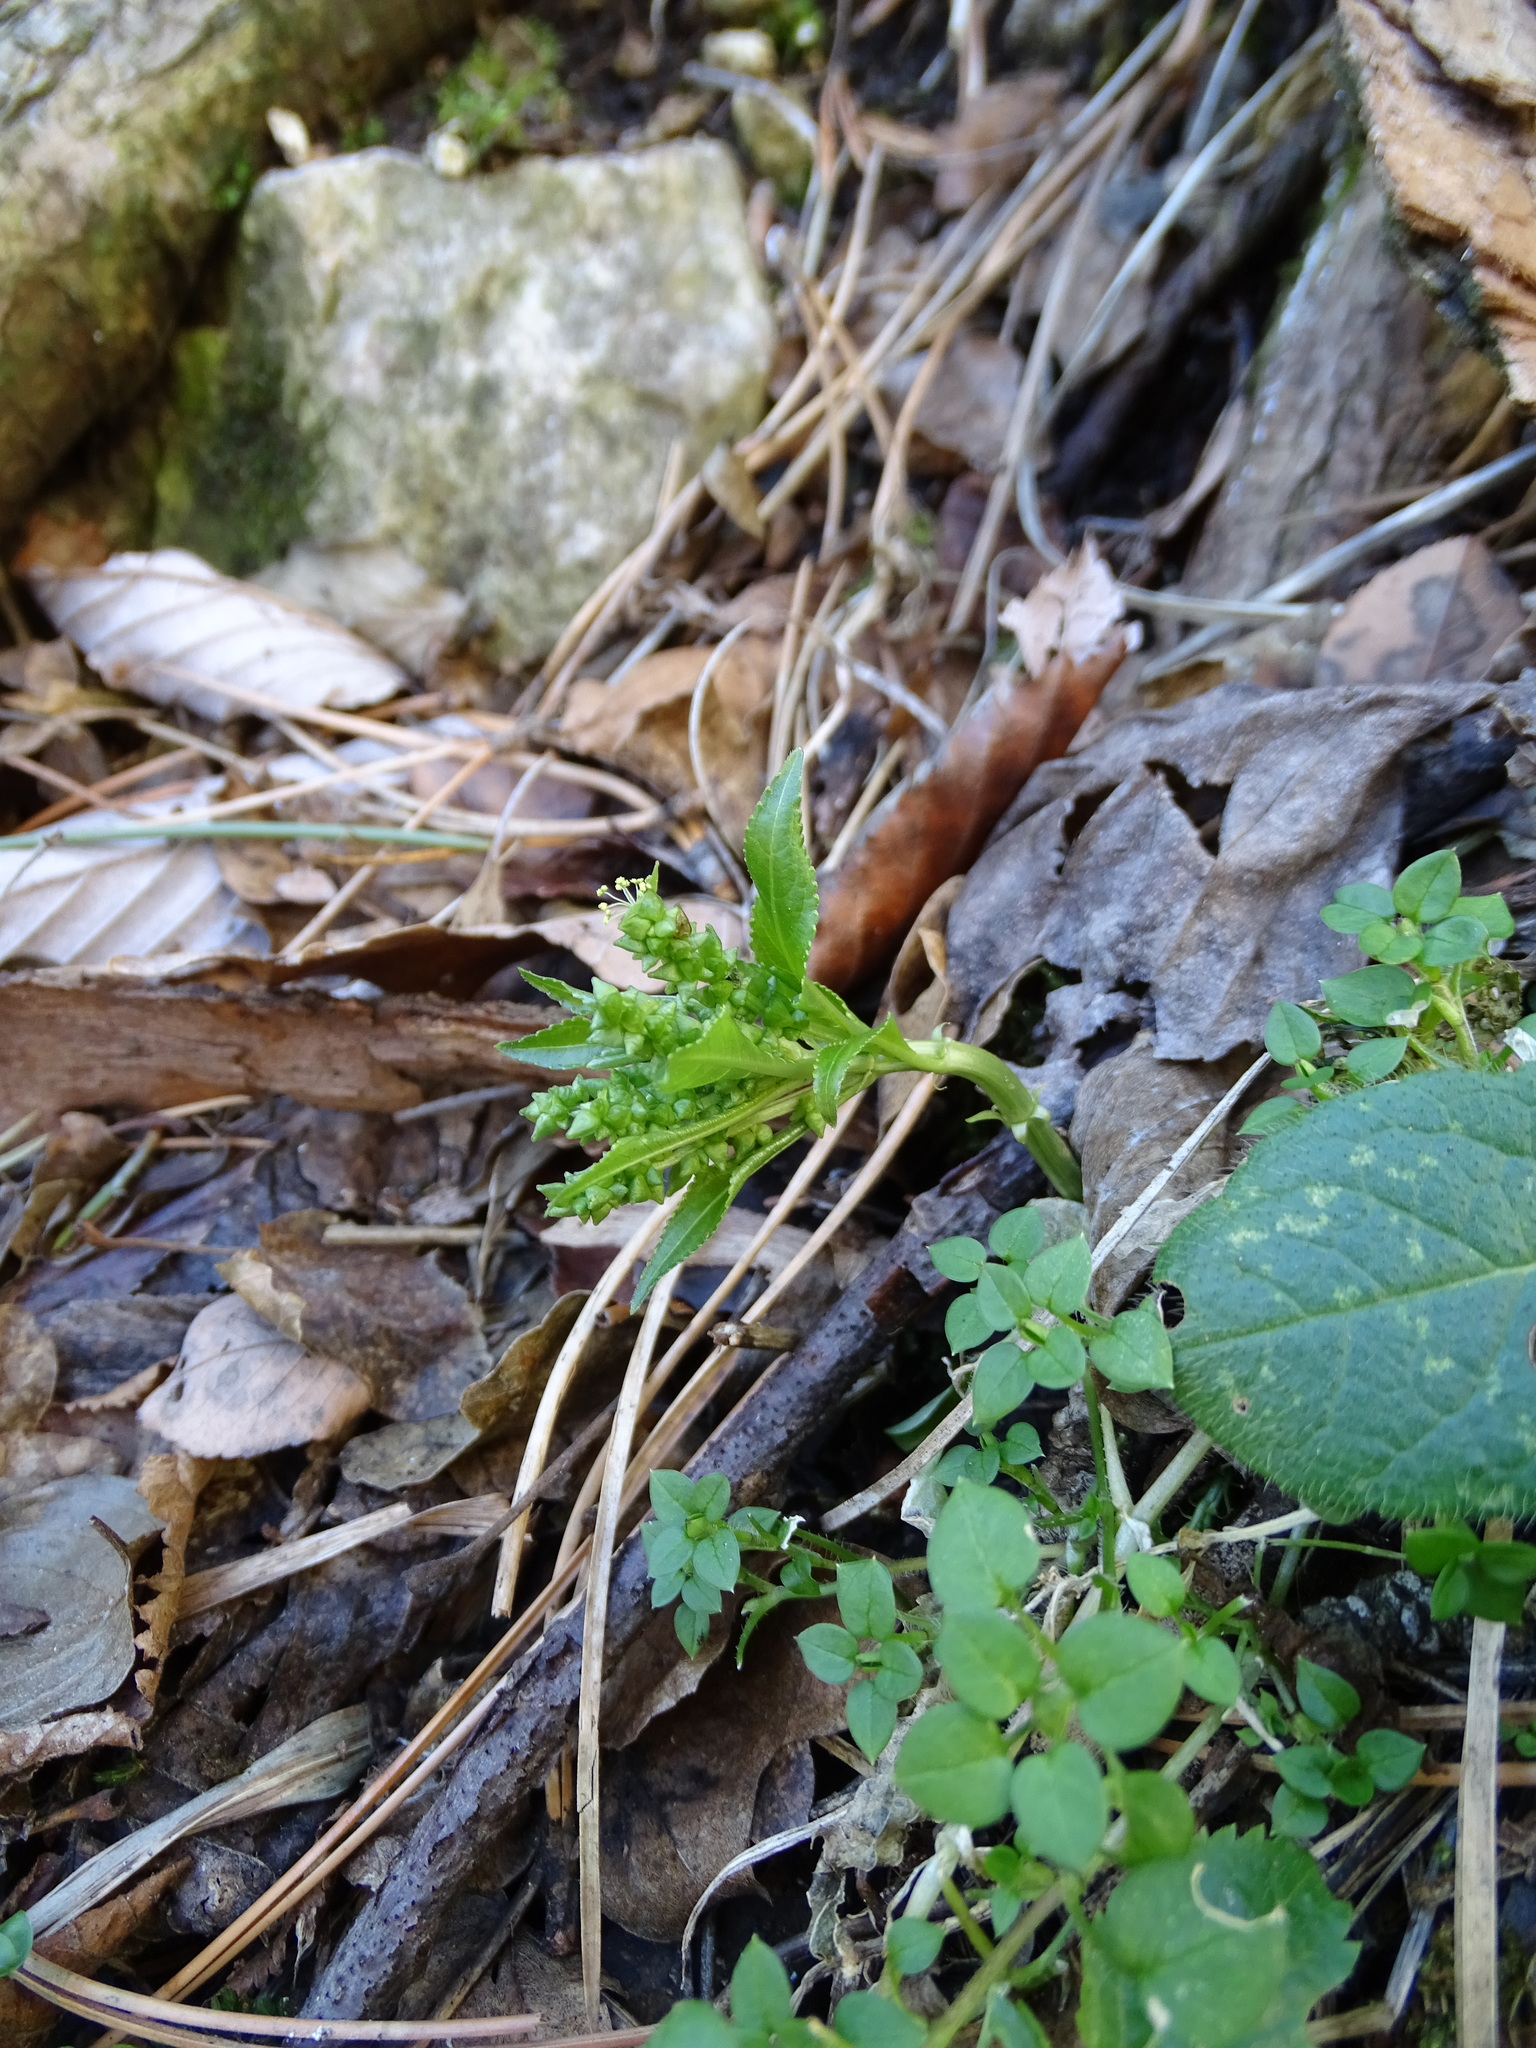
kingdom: Plantae
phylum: Tracheophyta
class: Magnoliopsida
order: Malpighiales
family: Euphorbiaceae
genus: Mercurialis
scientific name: Mercurialis perennis
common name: Dog mercury
